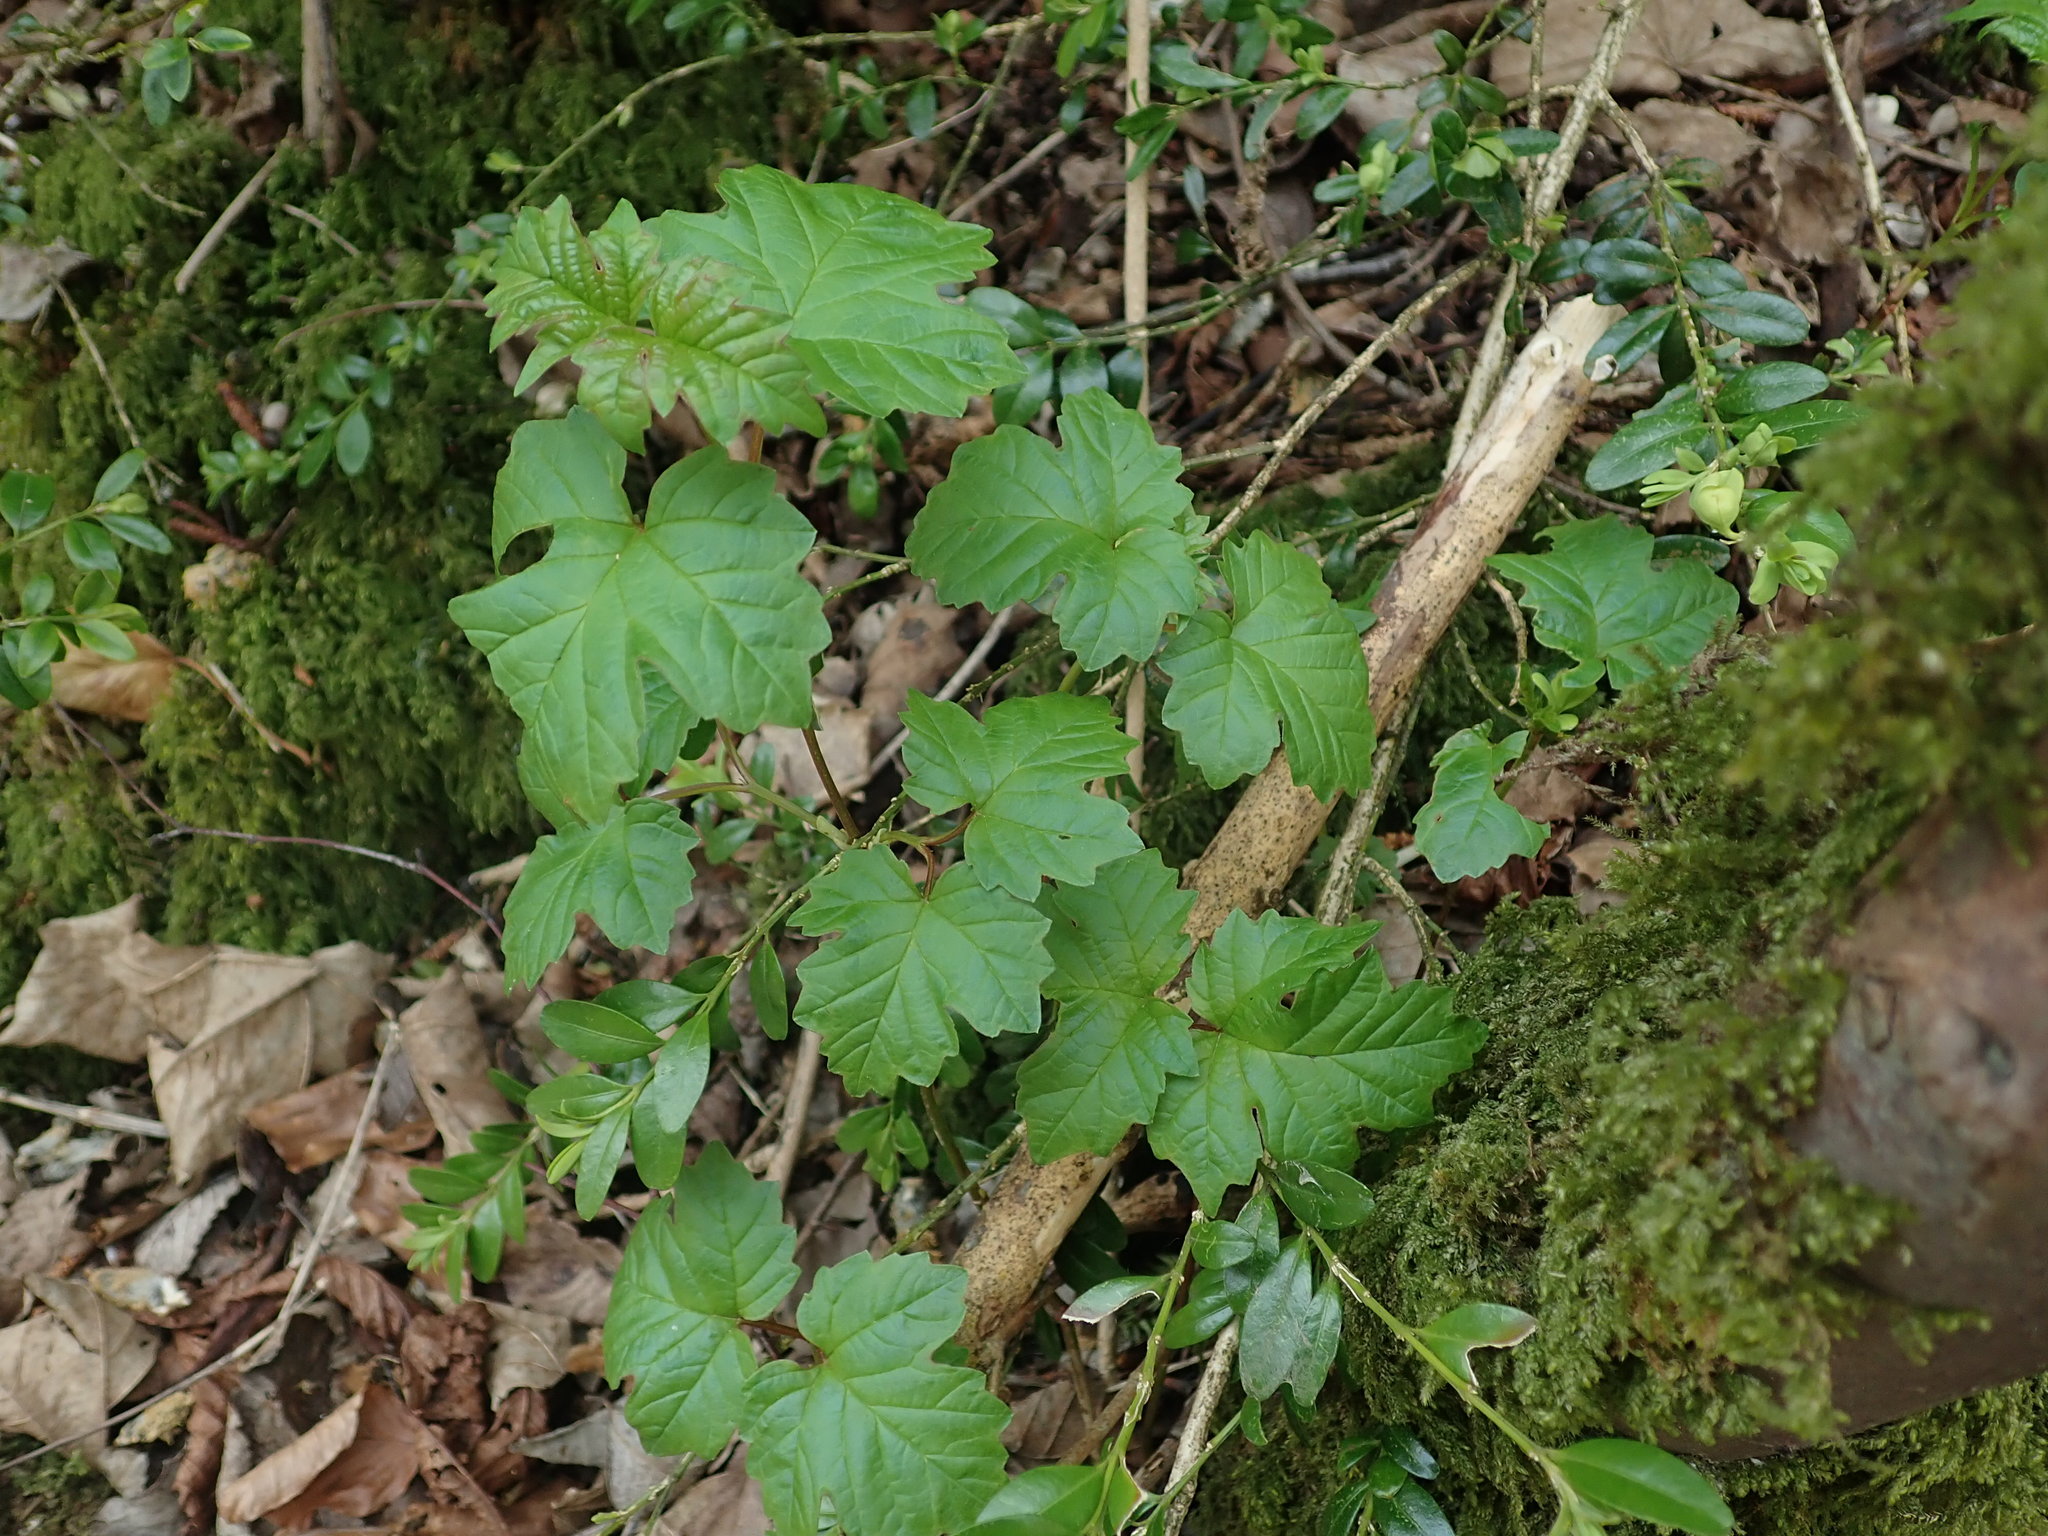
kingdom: Plantae
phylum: Tracheophyta
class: Magnoliopsida
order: Dipsacales
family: Viburnaceae
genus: Viburnum
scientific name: Viburnum opulus
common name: Guelder-rose
